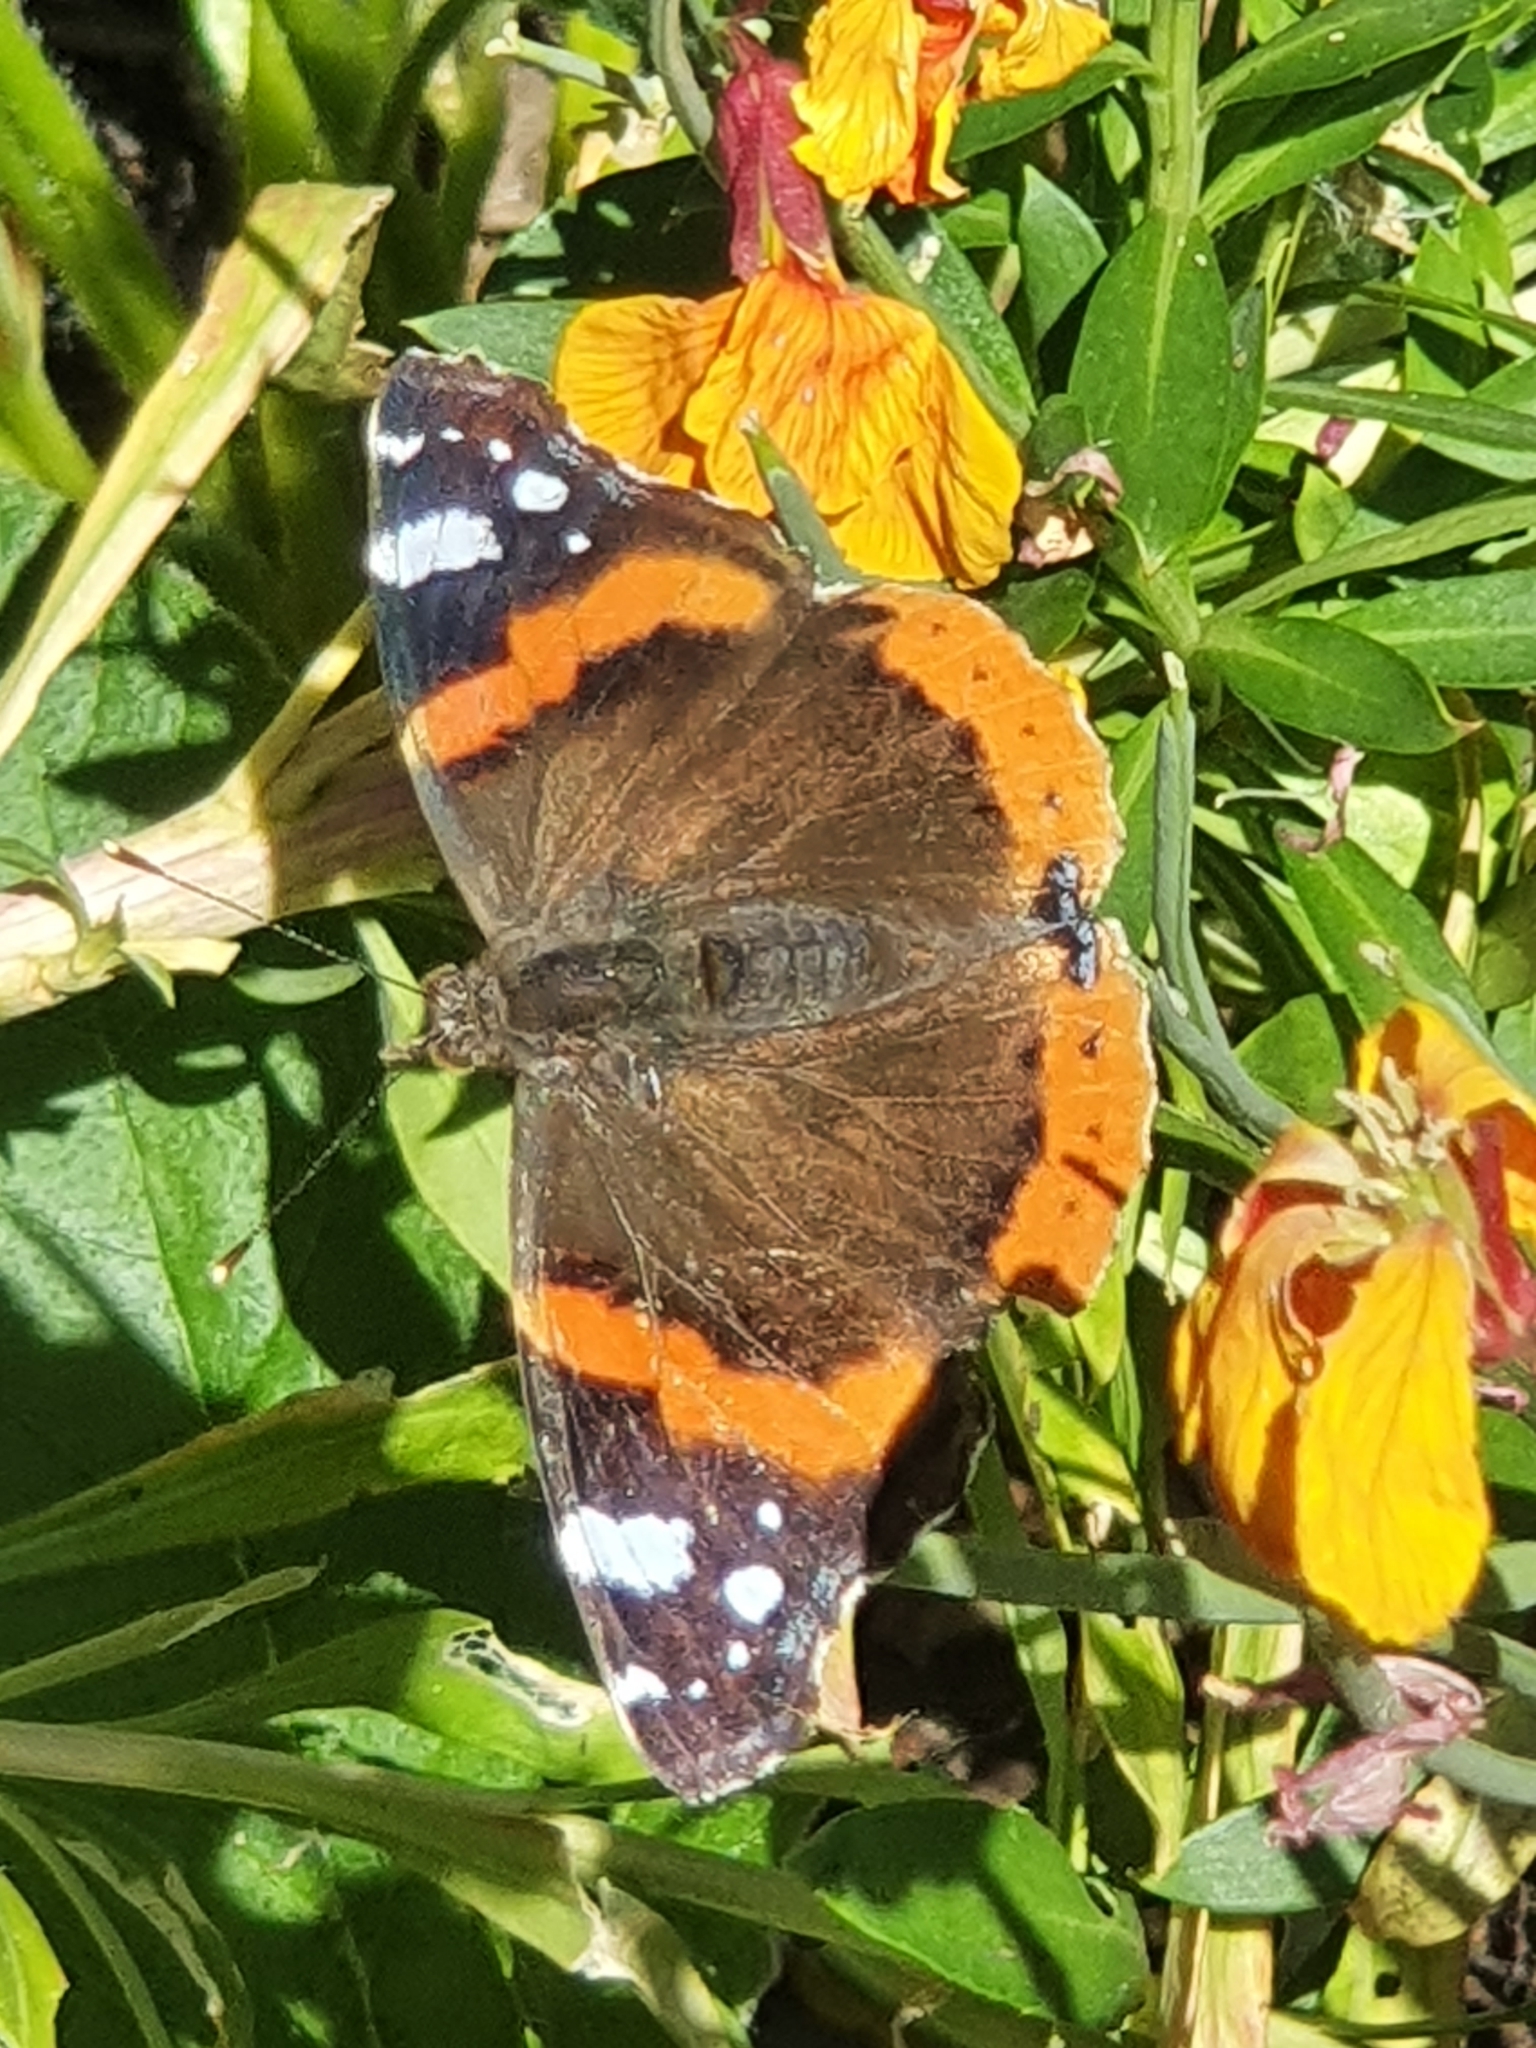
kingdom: Animalia
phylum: Arthropoda
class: Insecta
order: Lepidoptera
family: Nymphalidae
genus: Vanessa
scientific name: Vanessa atalanta
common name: Red admiral
